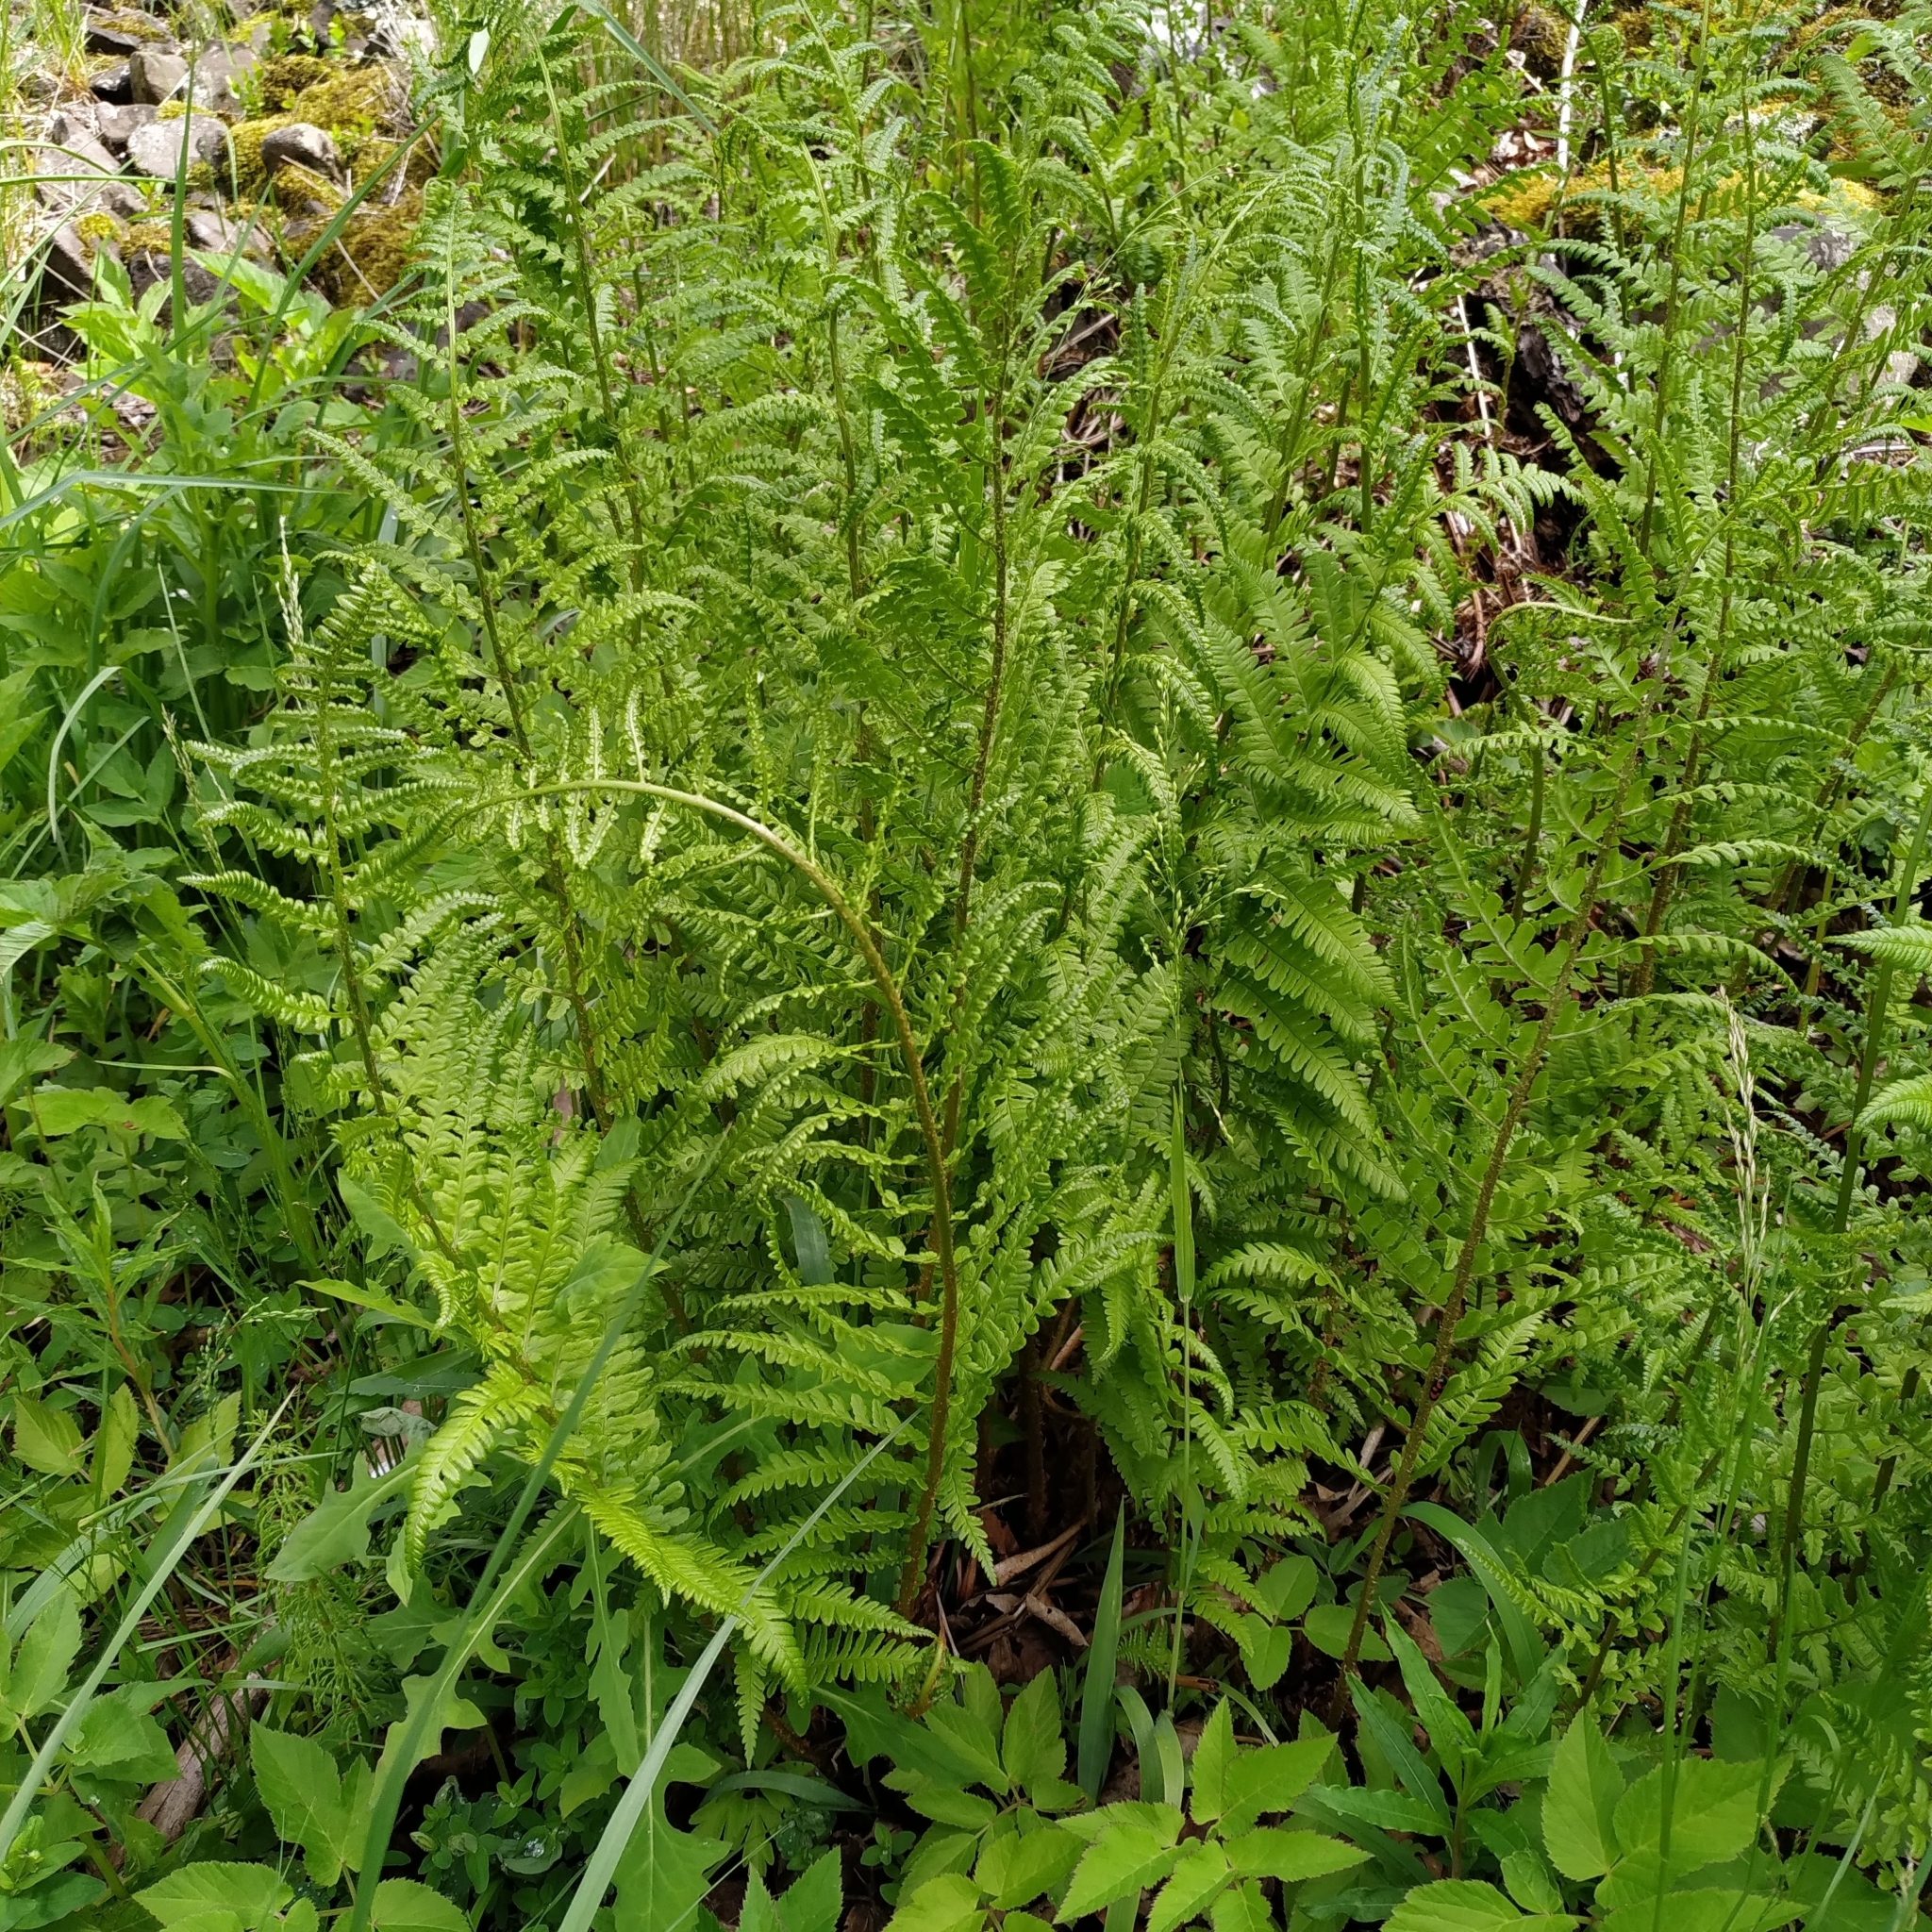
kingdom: Plantae
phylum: Tracheophyta
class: Polypodiopsida
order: Polypodiales
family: Dryopteridaceae
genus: Dryopteris
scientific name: Dryopteris filix-mas
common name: Male fern
